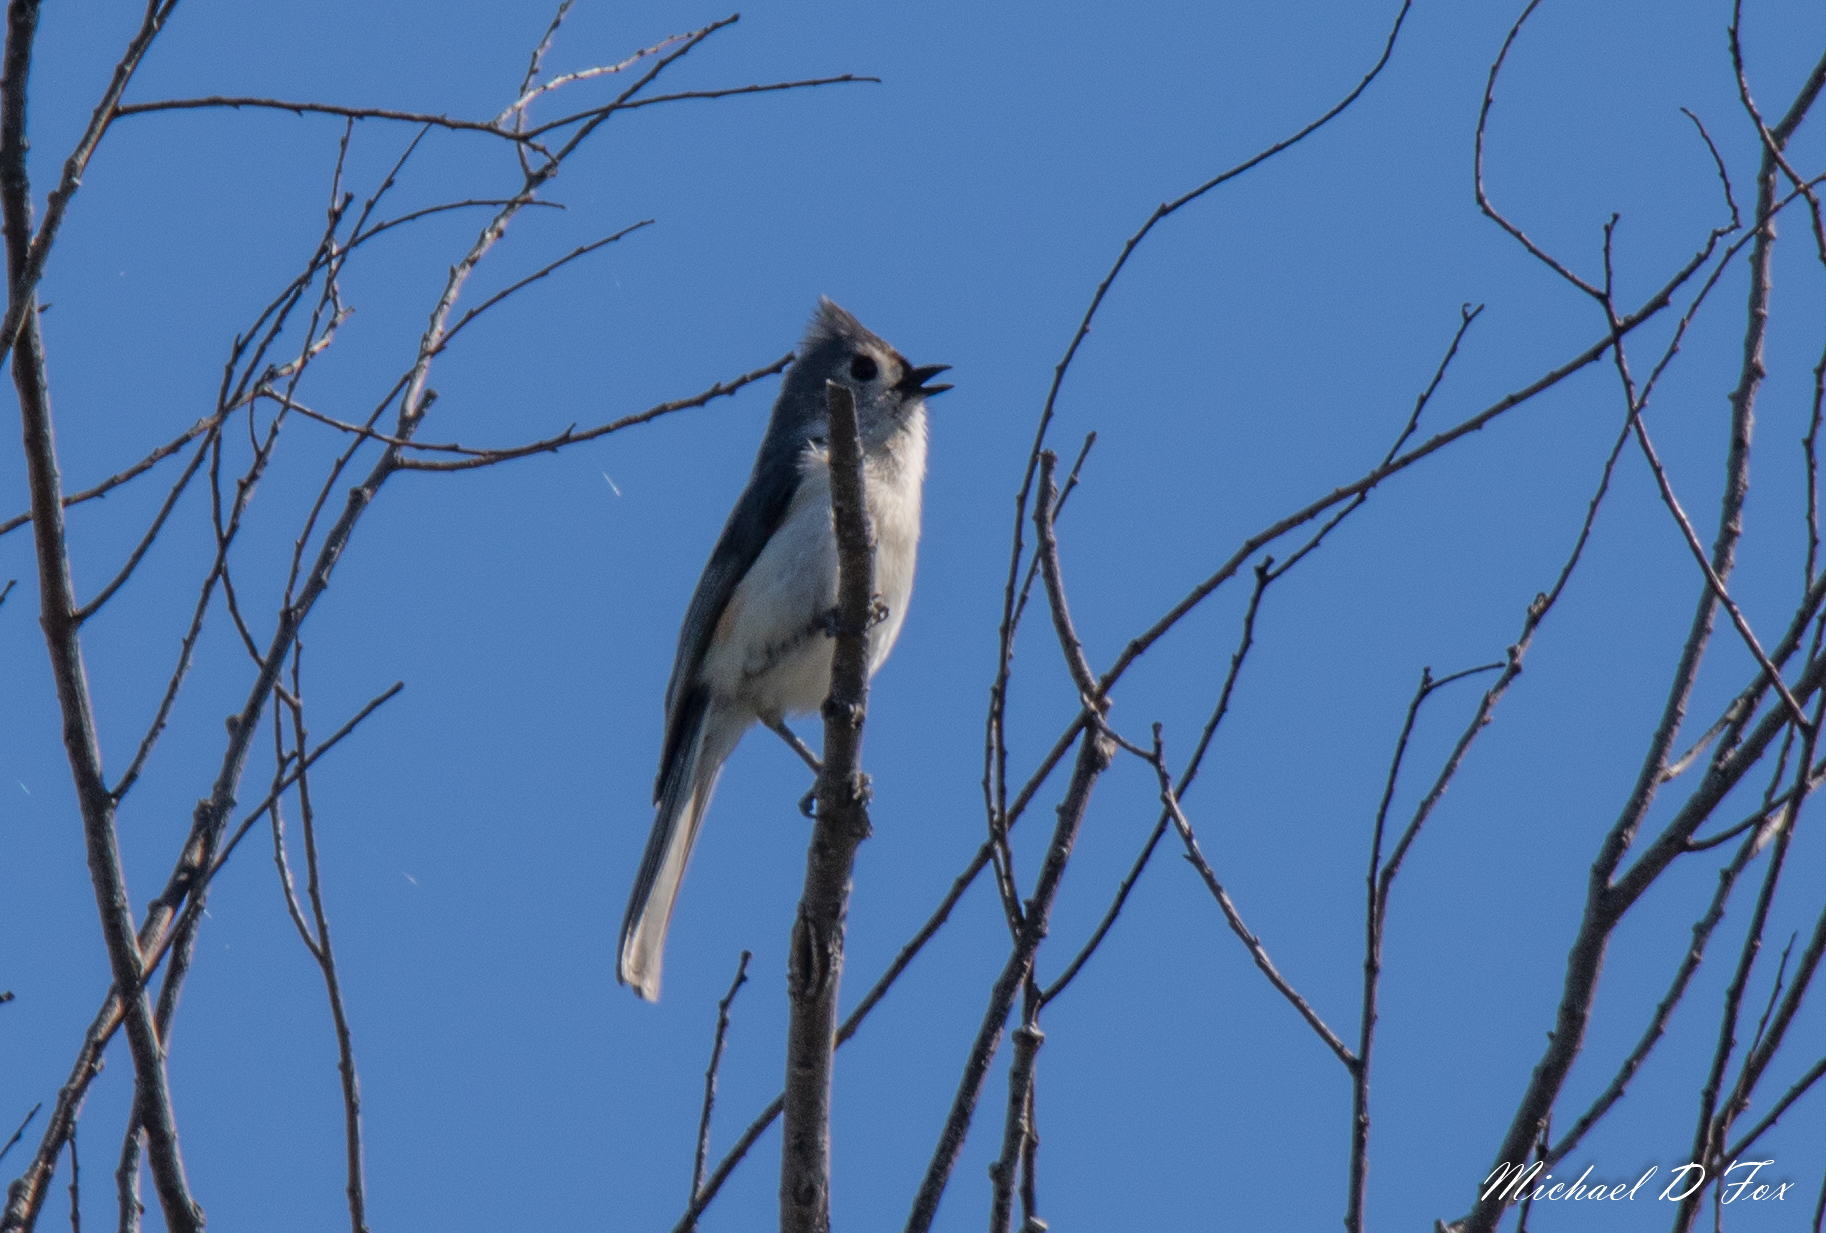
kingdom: Animalia
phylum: Chordata
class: Aves
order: Passeriformes
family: Paridae
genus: Baeolophus
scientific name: Baeolophus bicolor
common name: Tufted titmouse
